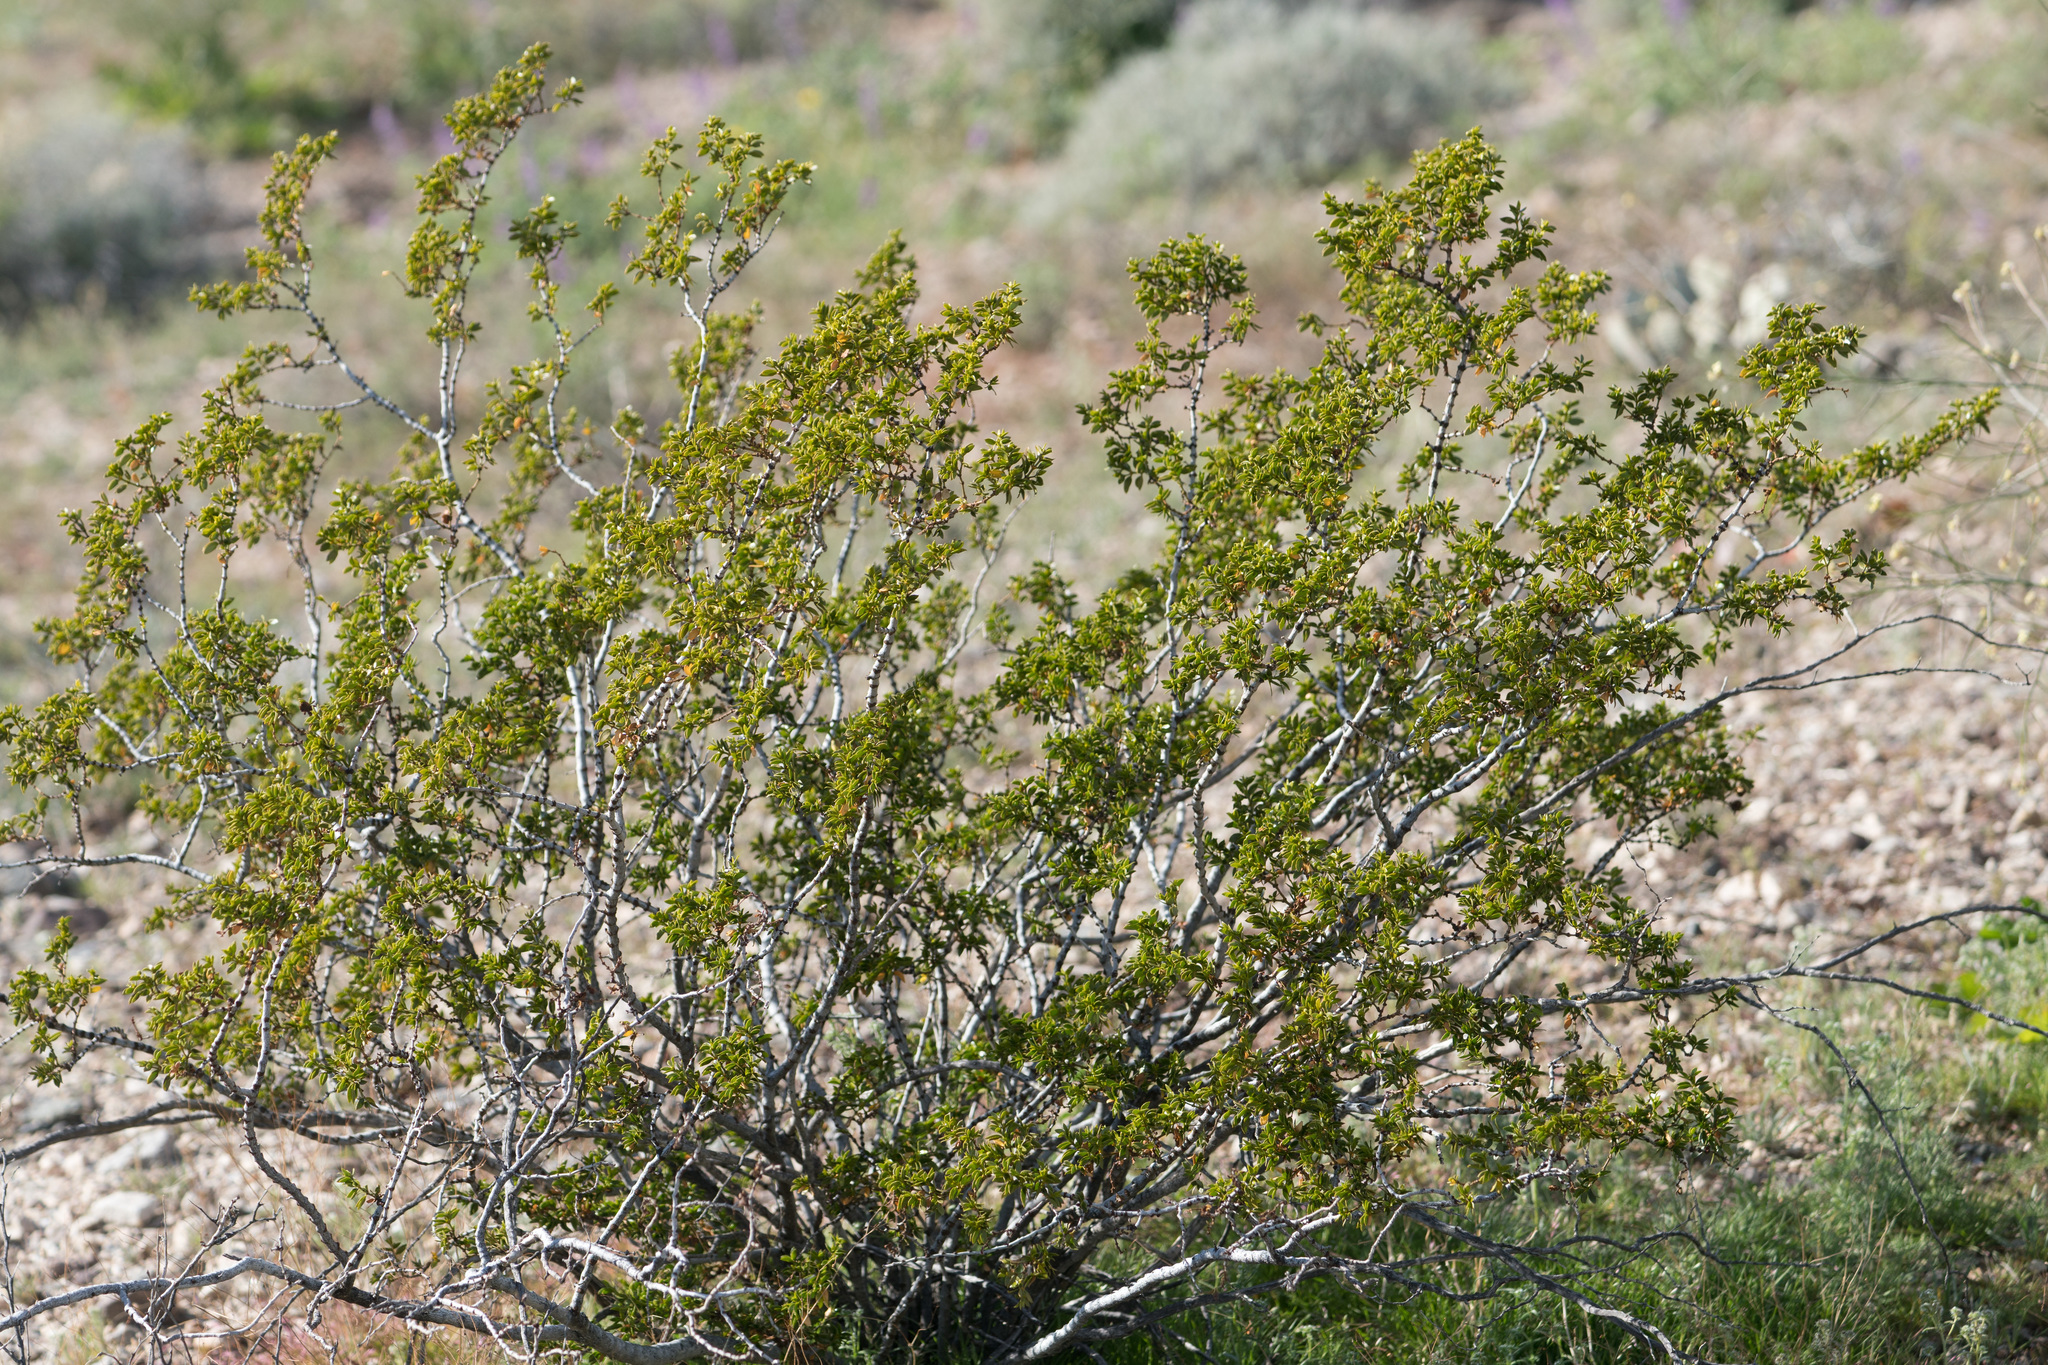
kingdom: Plantae
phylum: Tracheophyta
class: Magnoliopsida
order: Zygophyllales
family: Zygophyllaceae
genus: Larrea
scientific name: Larrea tridentata
